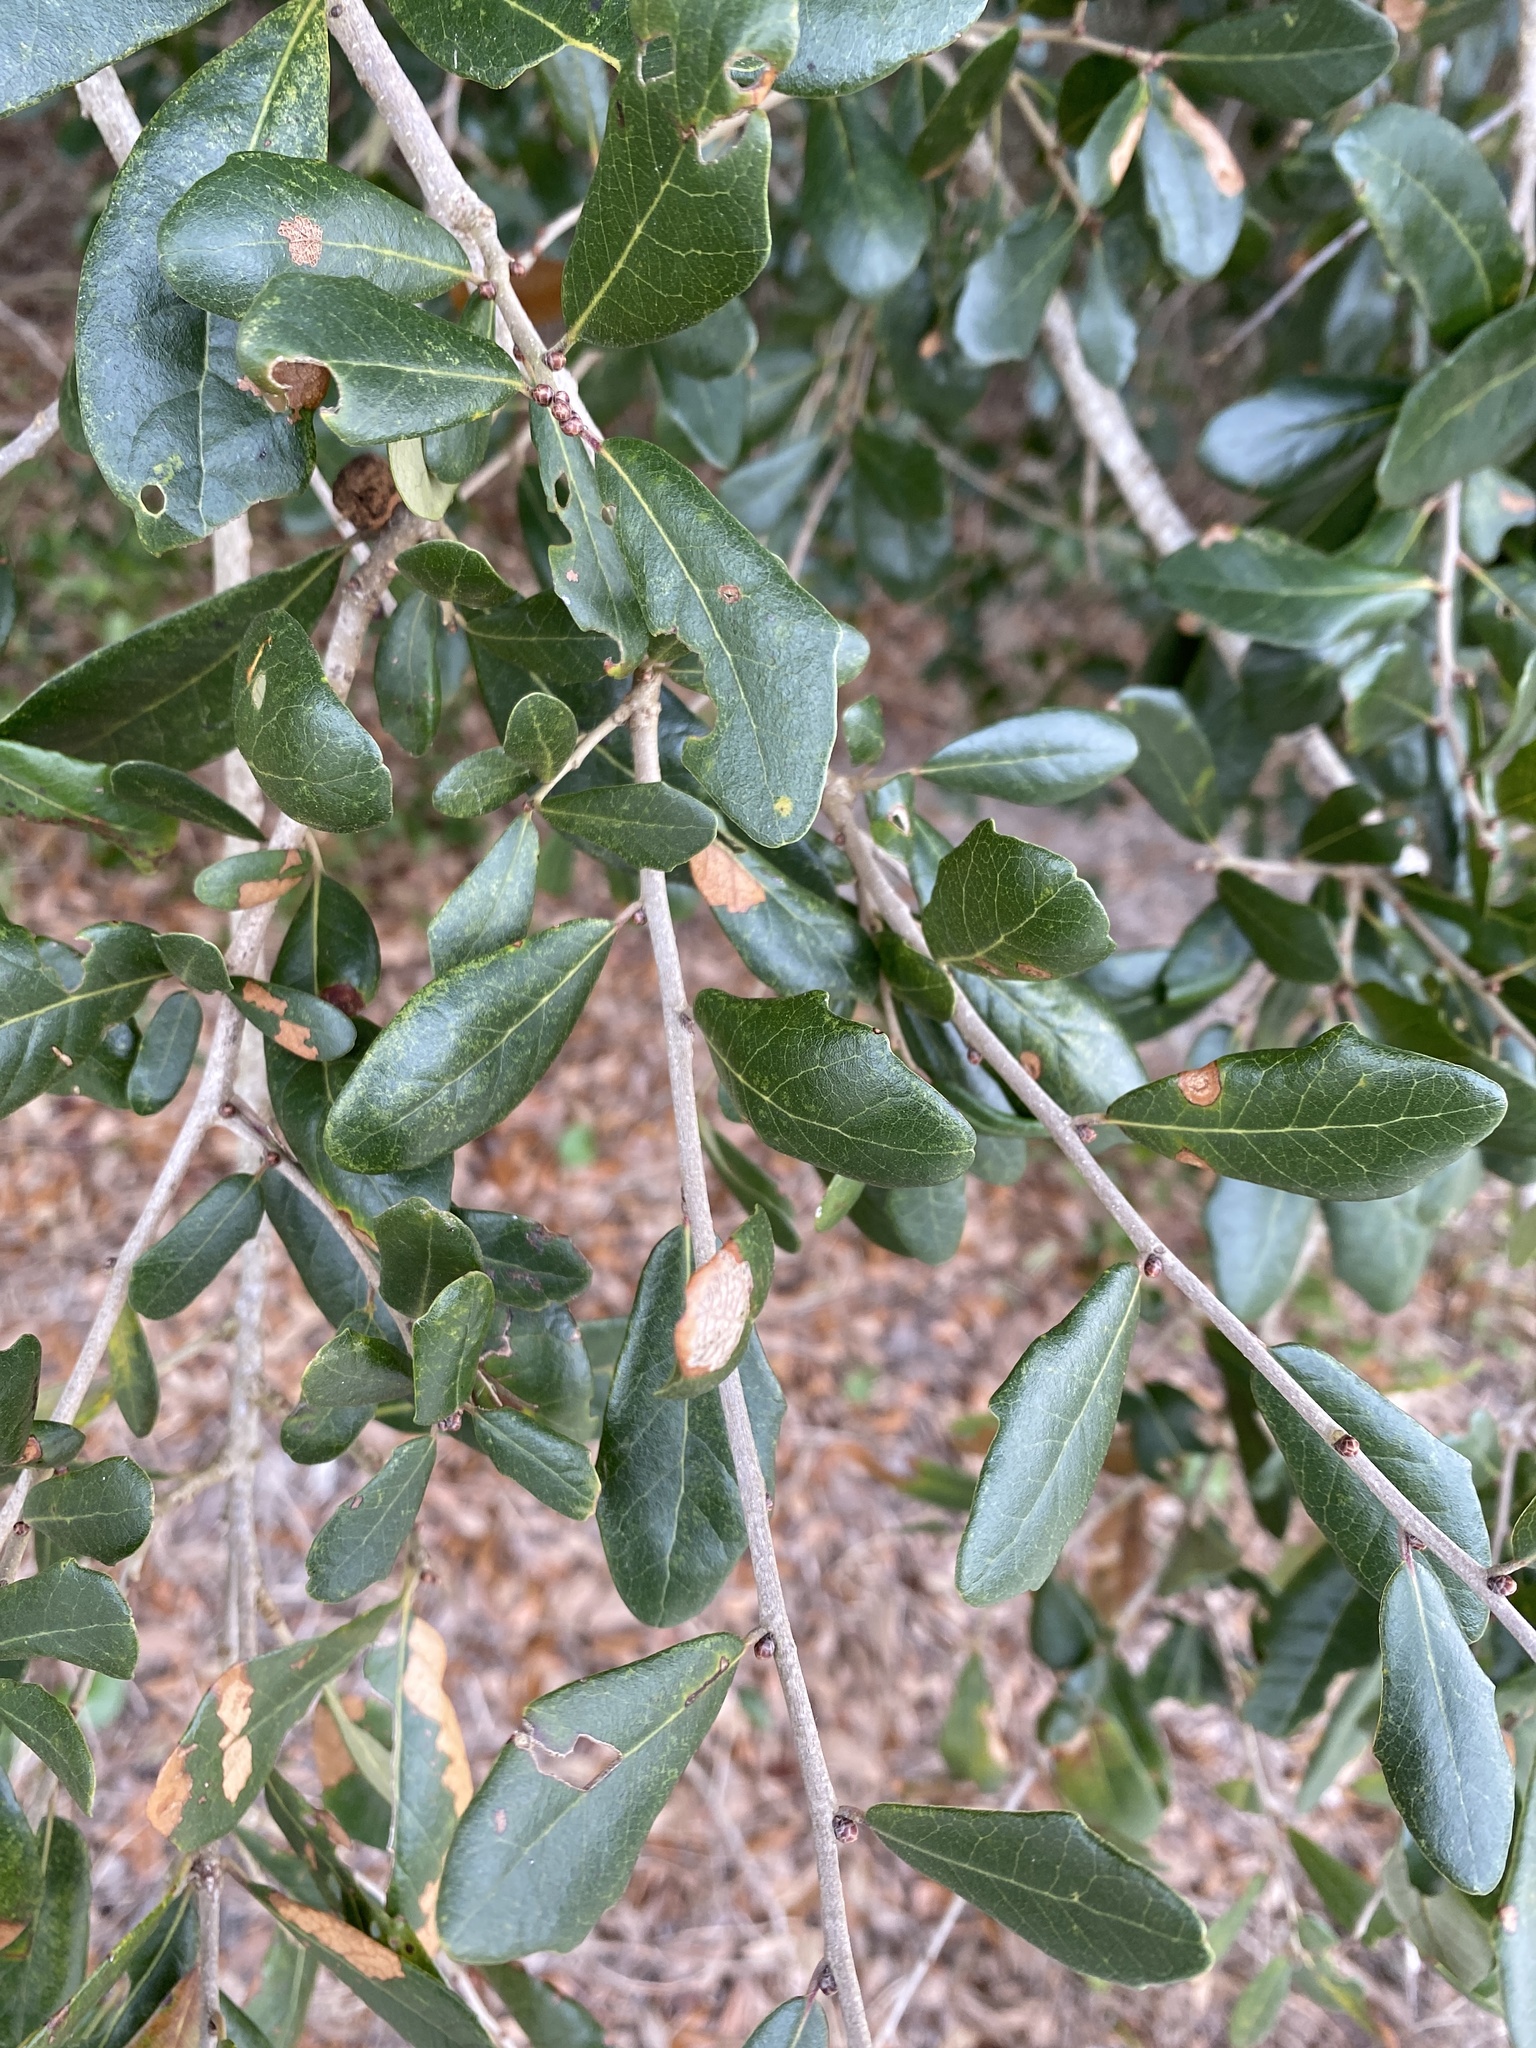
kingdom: Plantae
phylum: Tracheophyta
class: Magnoliopsida
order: Fagales
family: Fagaceae
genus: Quercus
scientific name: Quercus virginiana
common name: Southern live oak
